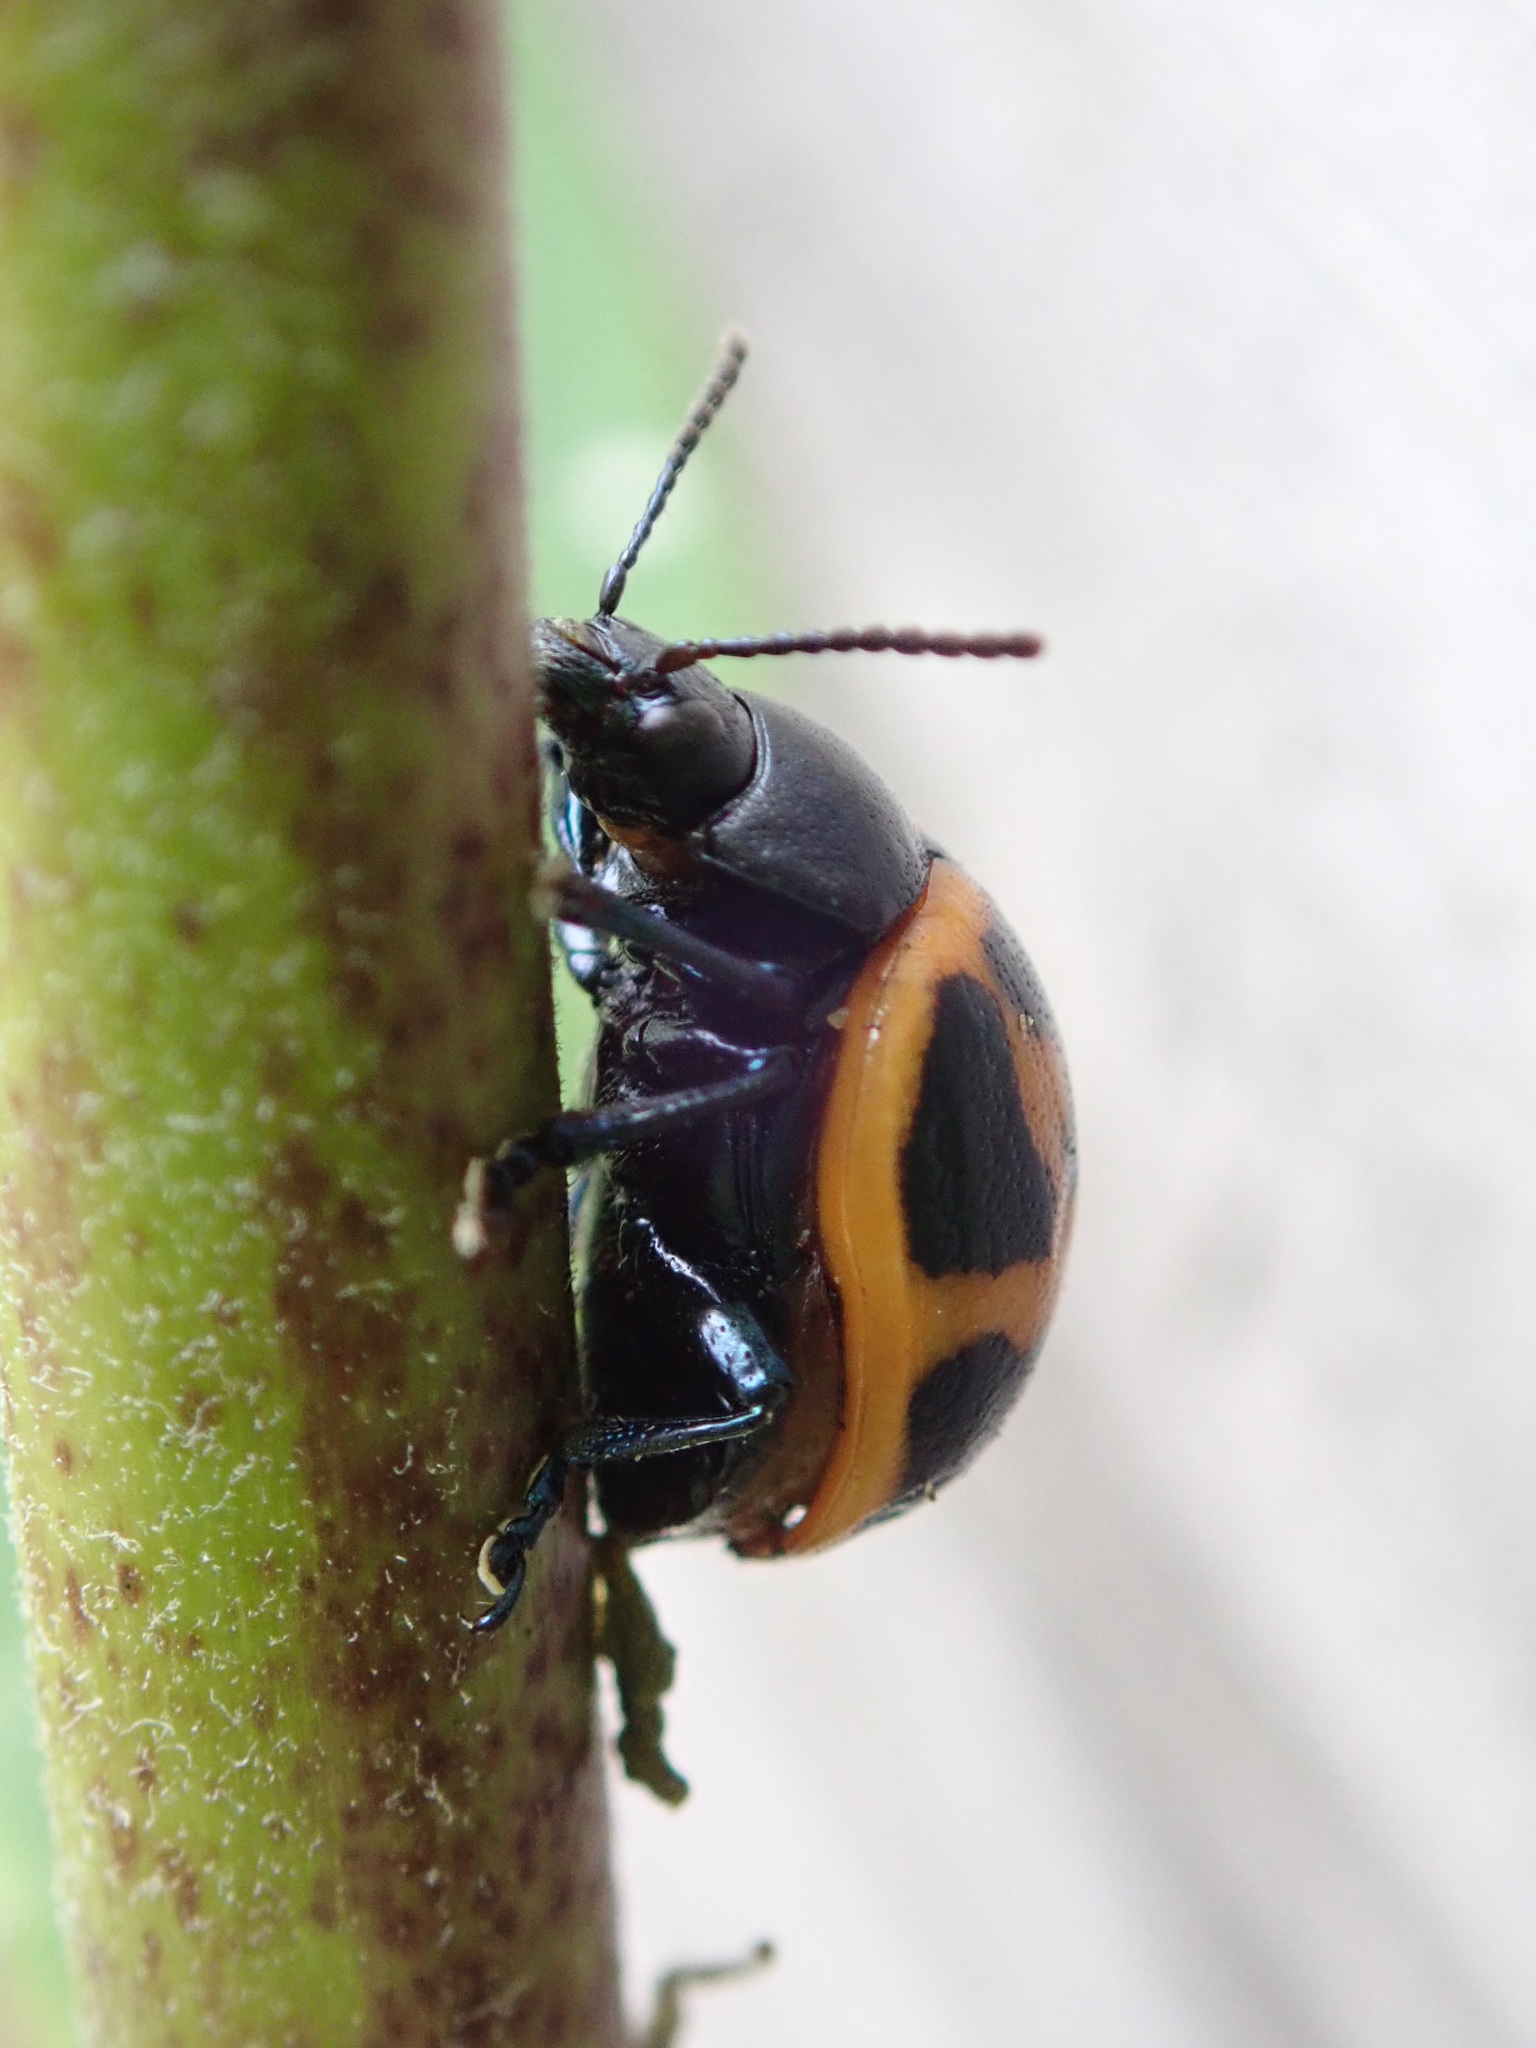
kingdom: Animalia
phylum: Arthropoda
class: Insecta
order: Coleoptera
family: Chrysomelidae
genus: Labidomera
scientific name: Labidomera clivicollis
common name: Swamp milkweed leaf beetle
